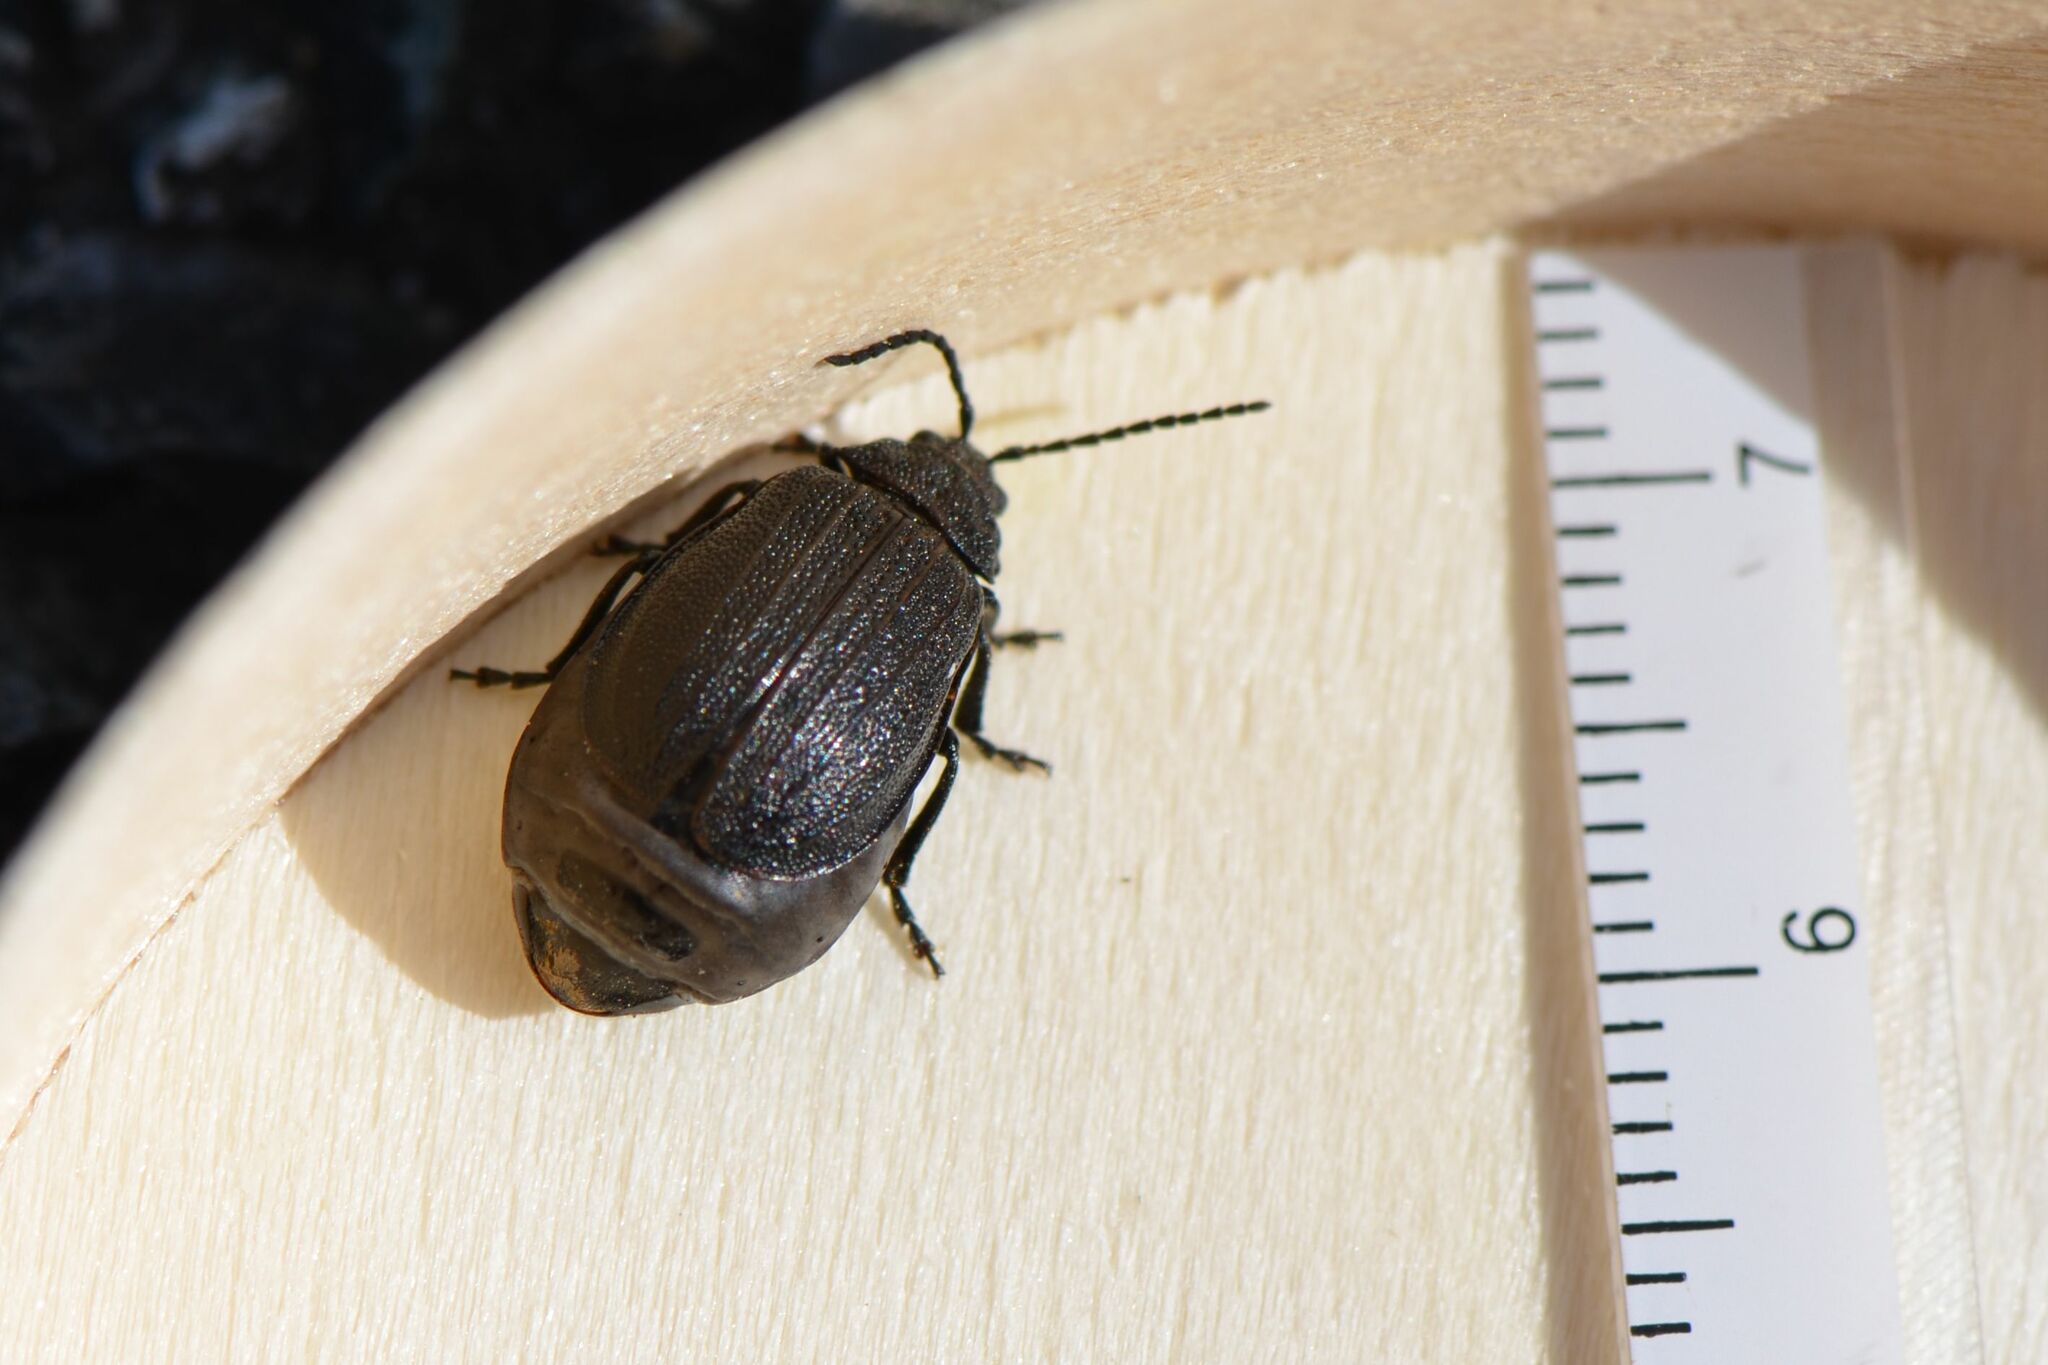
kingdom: Animalia
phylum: Arthropoda
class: Insecta
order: Coleoptera
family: Chrysomelidae
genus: Galeruca
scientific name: Galeruca pomonae
